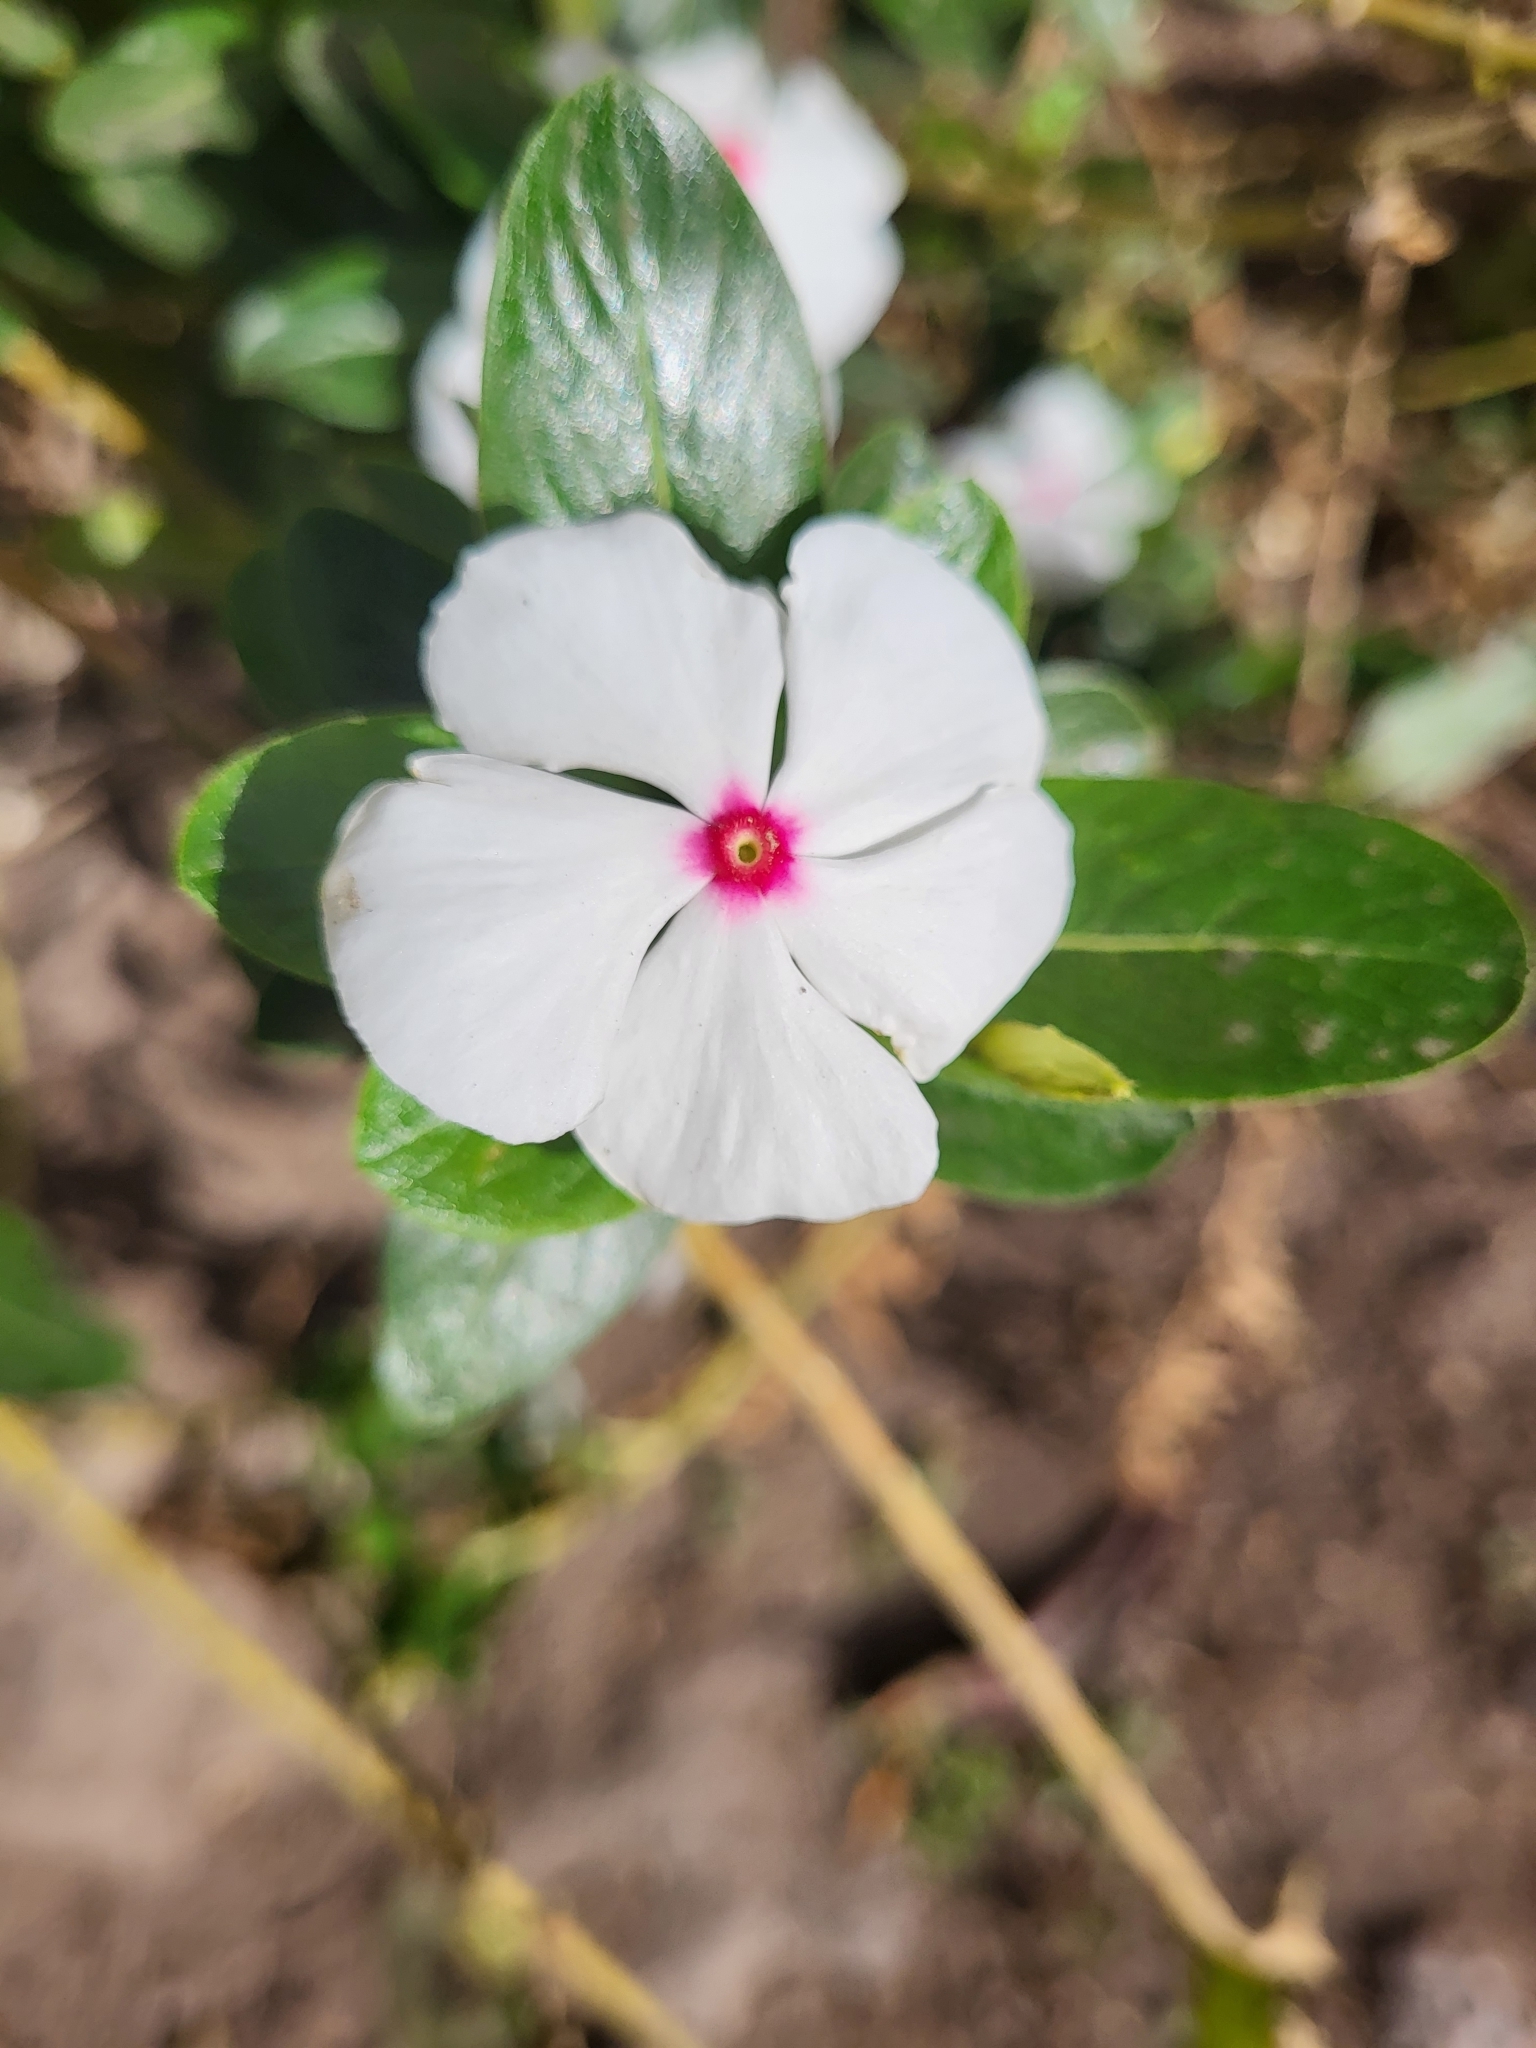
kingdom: Plantae
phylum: Tracheophyta
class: Magnoliopsida
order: Gentianales
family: Apocynaceae
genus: Catharanthus
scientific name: Catharanthus roseus
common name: Madagascar periwinkle
